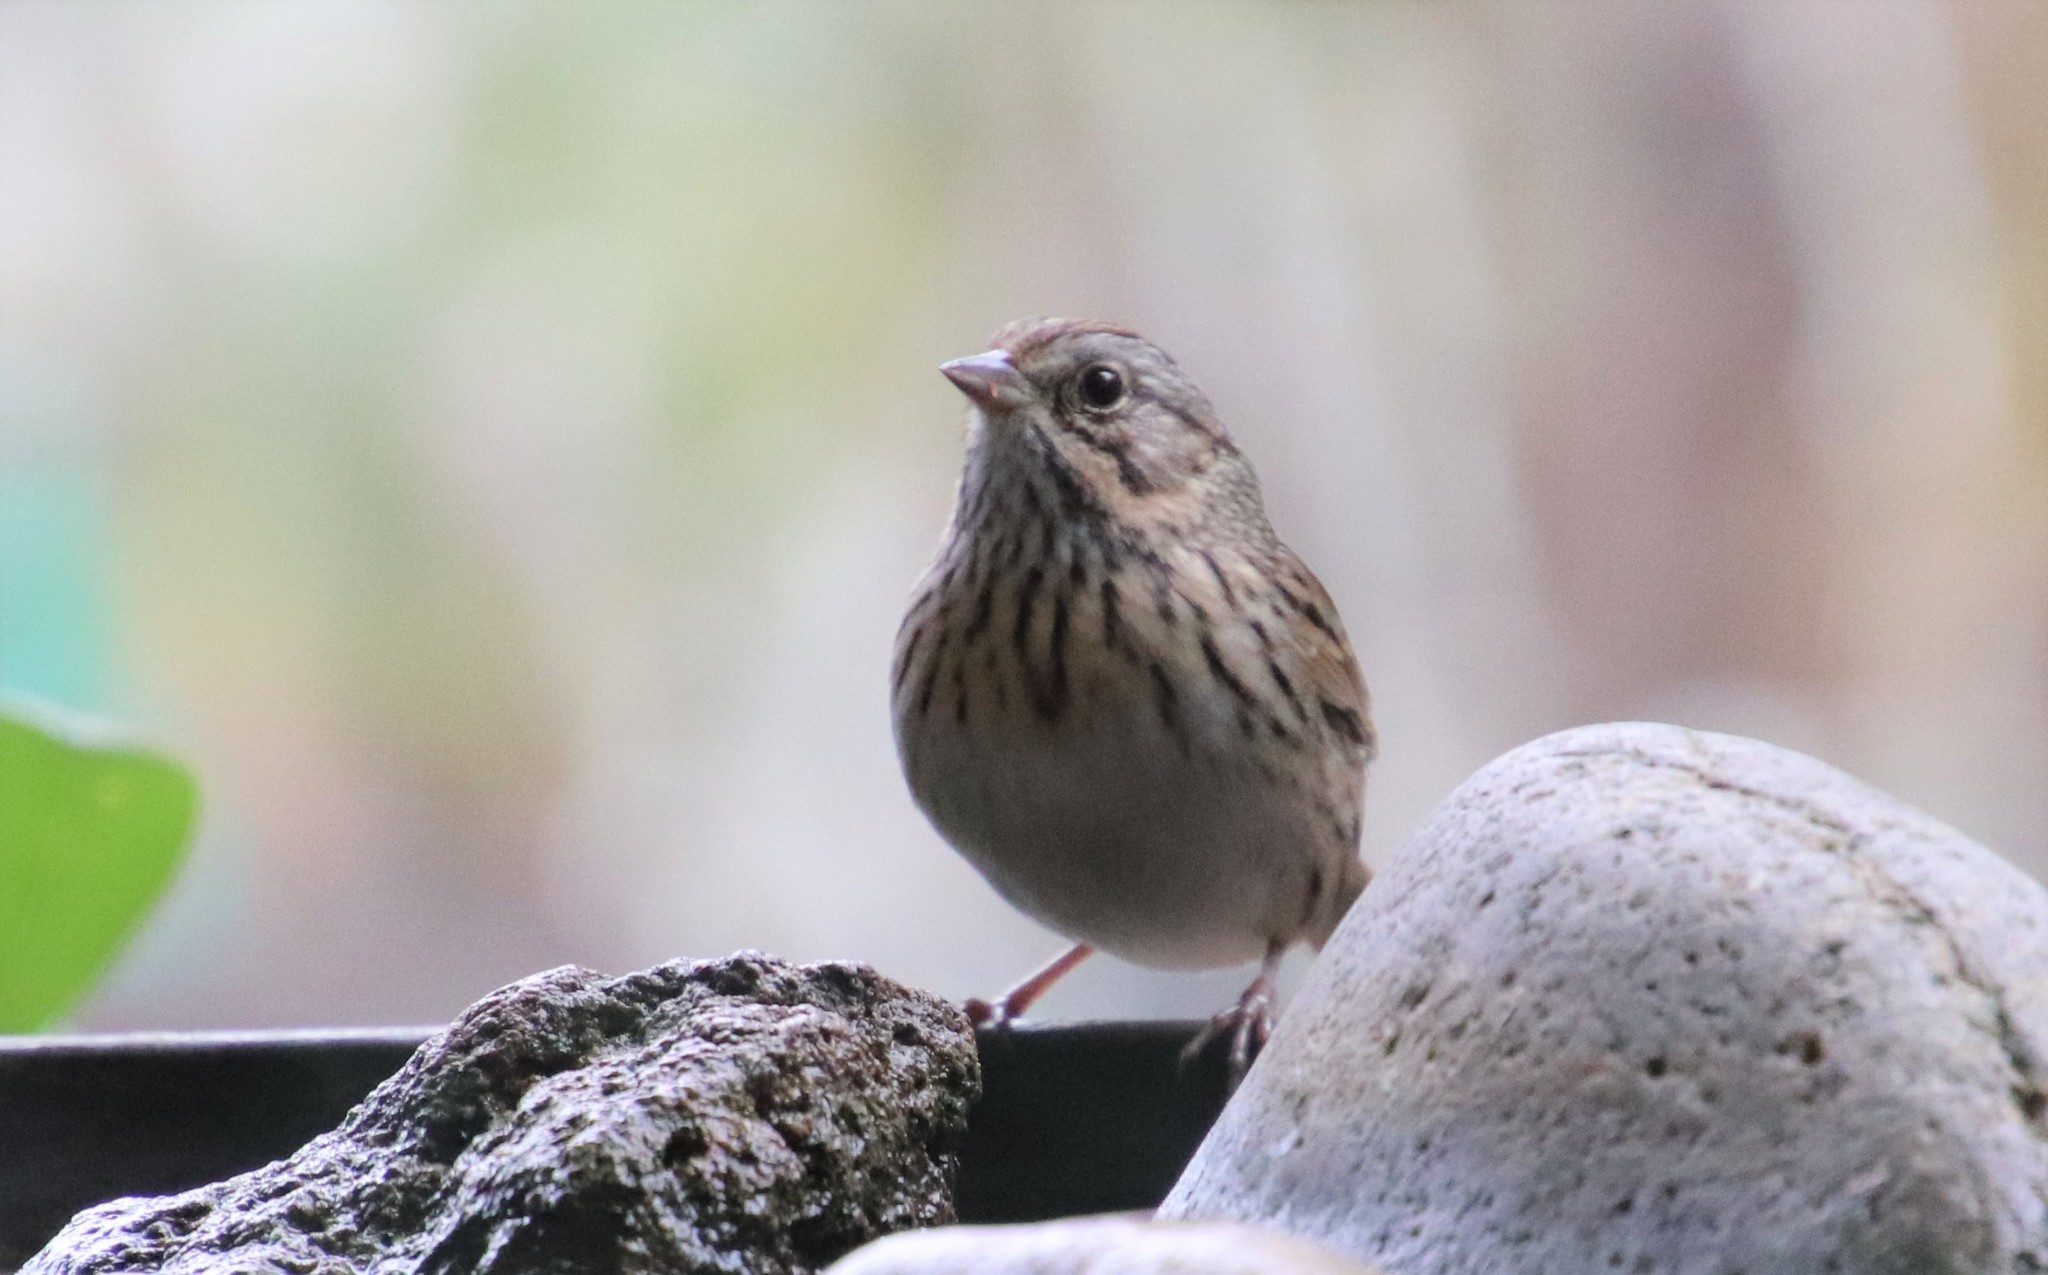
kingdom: Animalia
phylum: Chordata
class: Aves
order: Passeriformes
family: Passerellidae
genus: Melospiza
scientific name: Melospiza lincolnii
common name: Lincoln's sparrow
